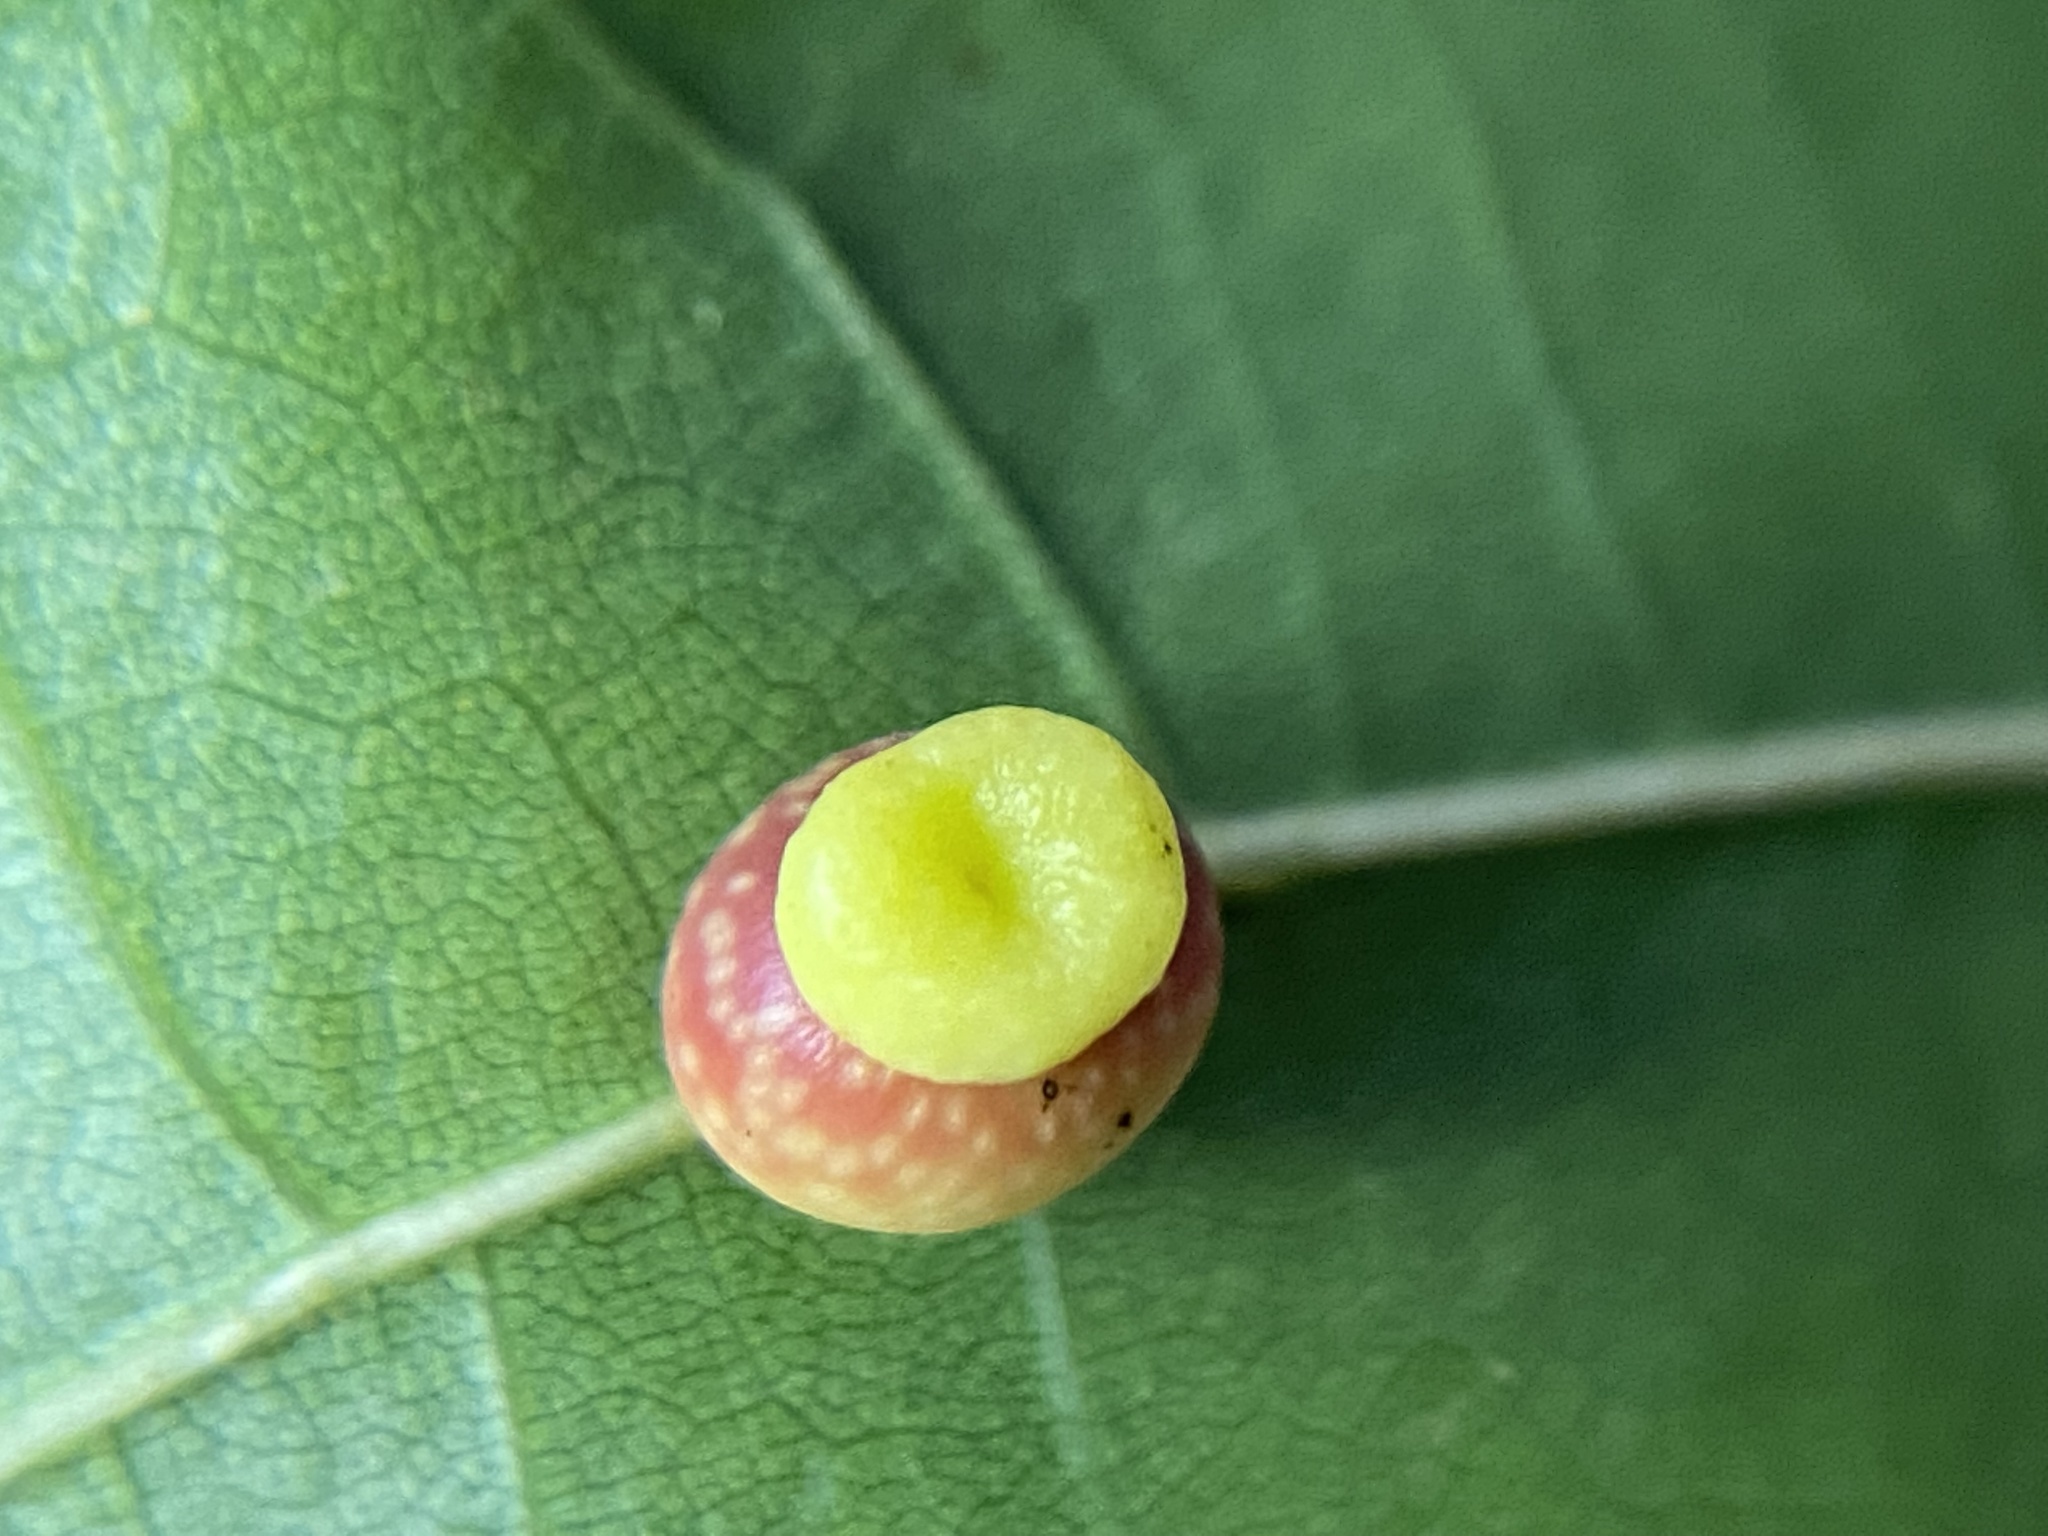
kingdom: Animalia
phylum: Arthropoda
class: Insecta
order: Hymenoptera
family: Cynipidae
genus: Kokkocynips
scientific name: Kokkocynips rileyi
